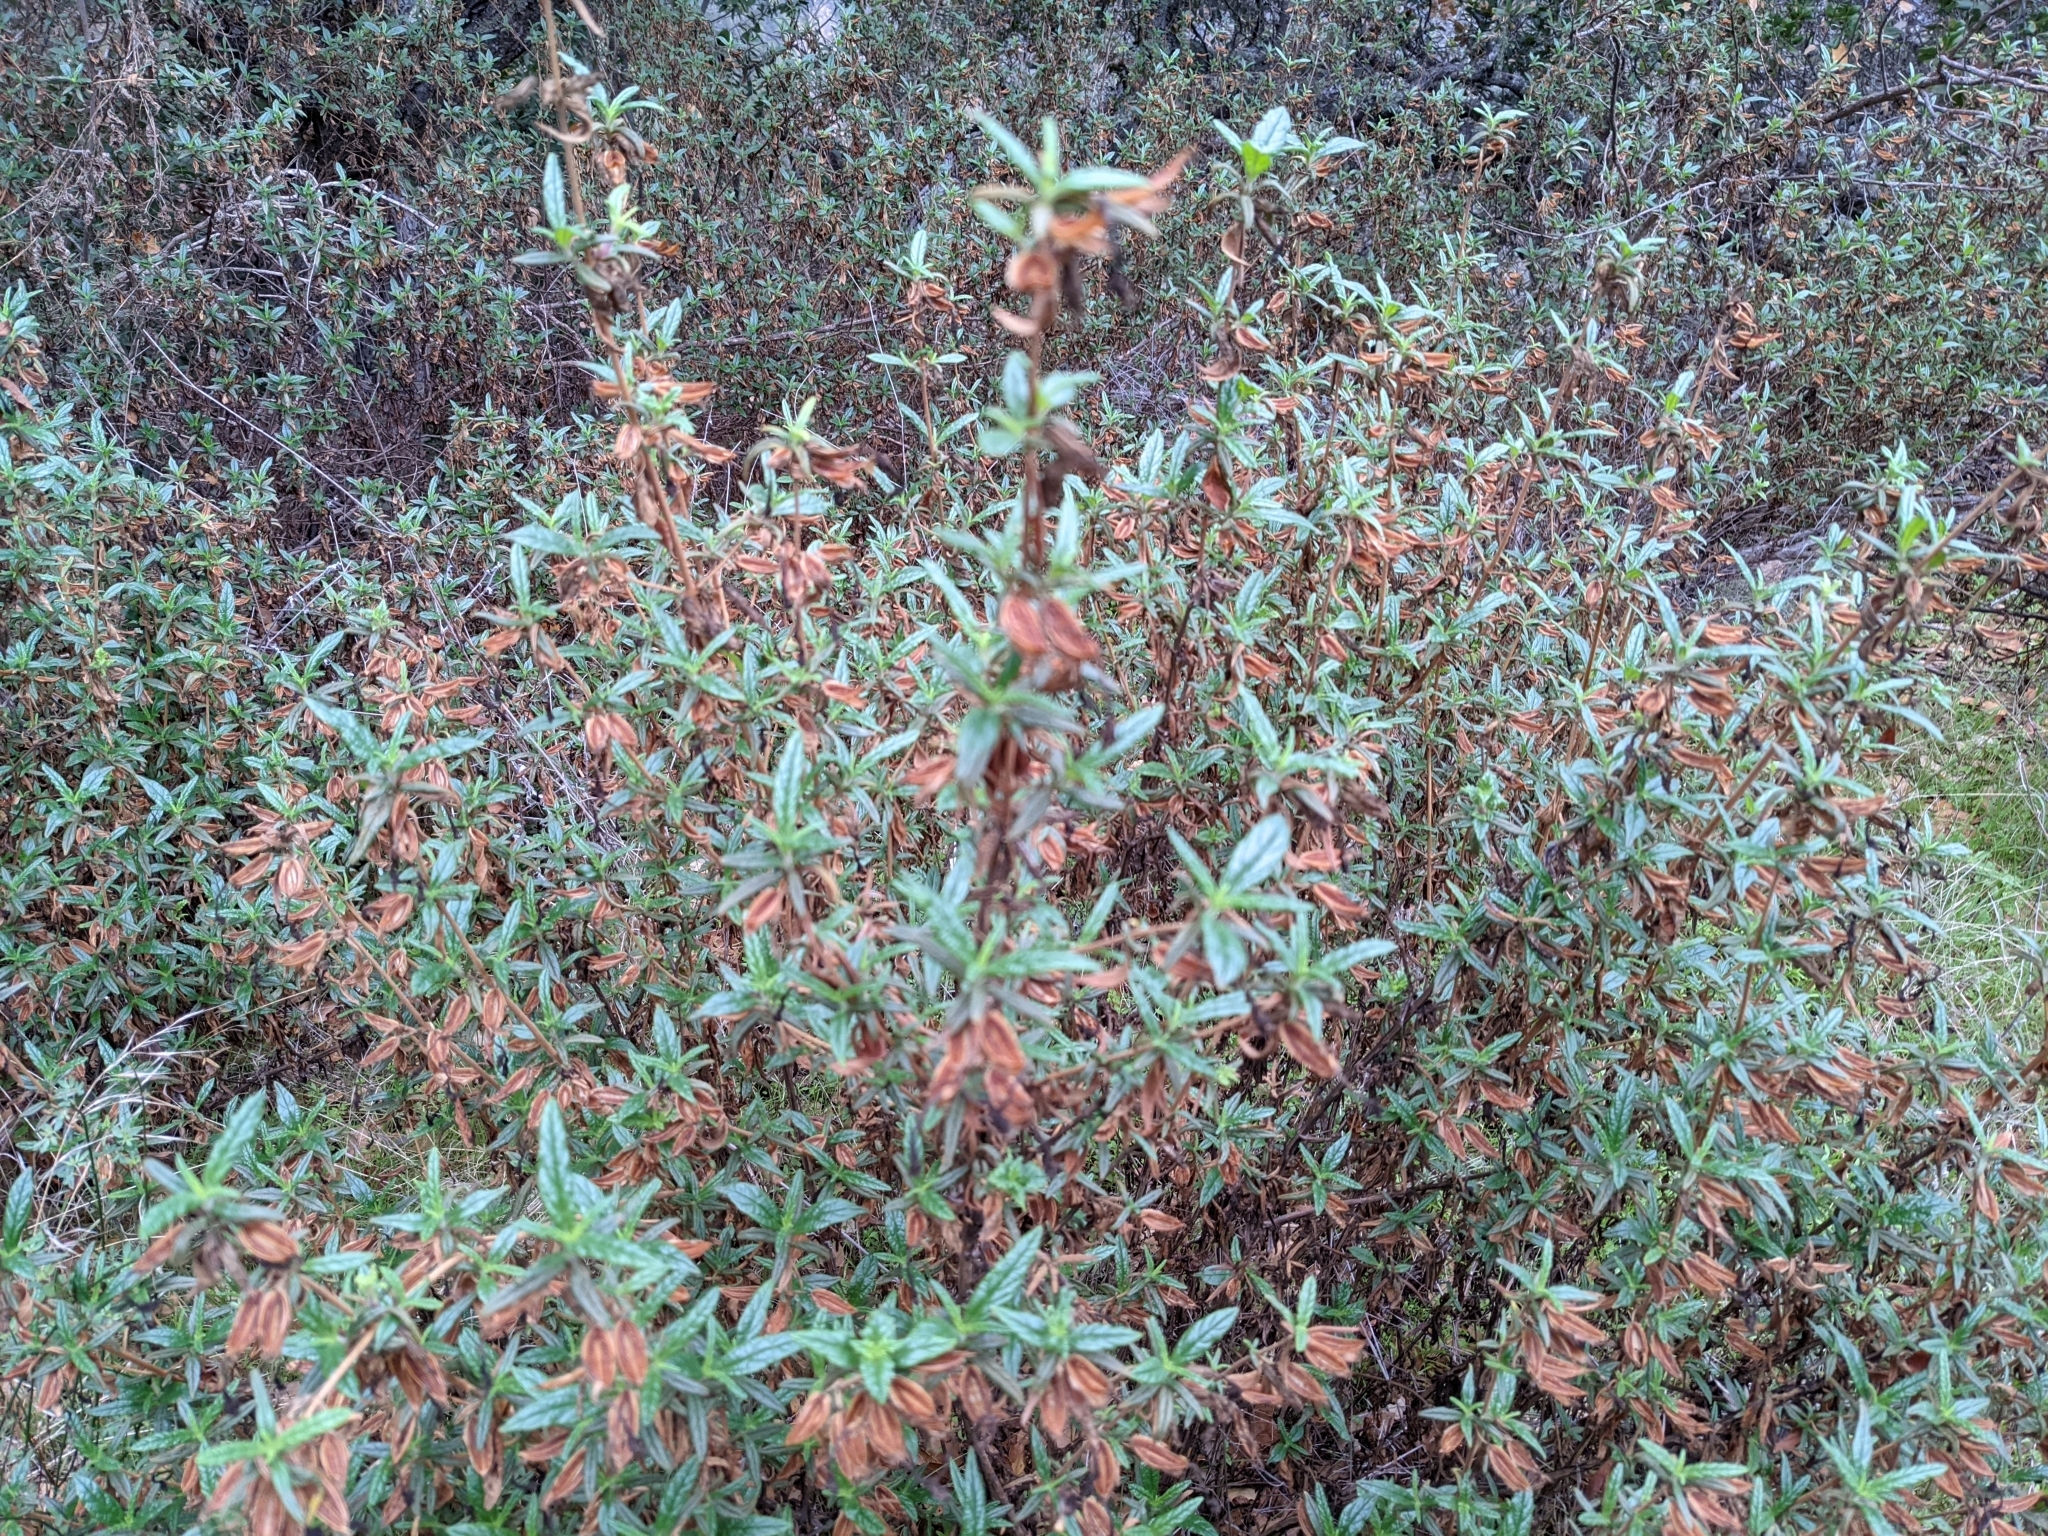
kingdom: Plantae
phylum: Tracheophyta
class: Magnoliopsida
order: Lamiales
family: Phrymaceae
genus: Diplacus
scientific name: Diplacus aurantiacus
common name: Bush monkey-flower
